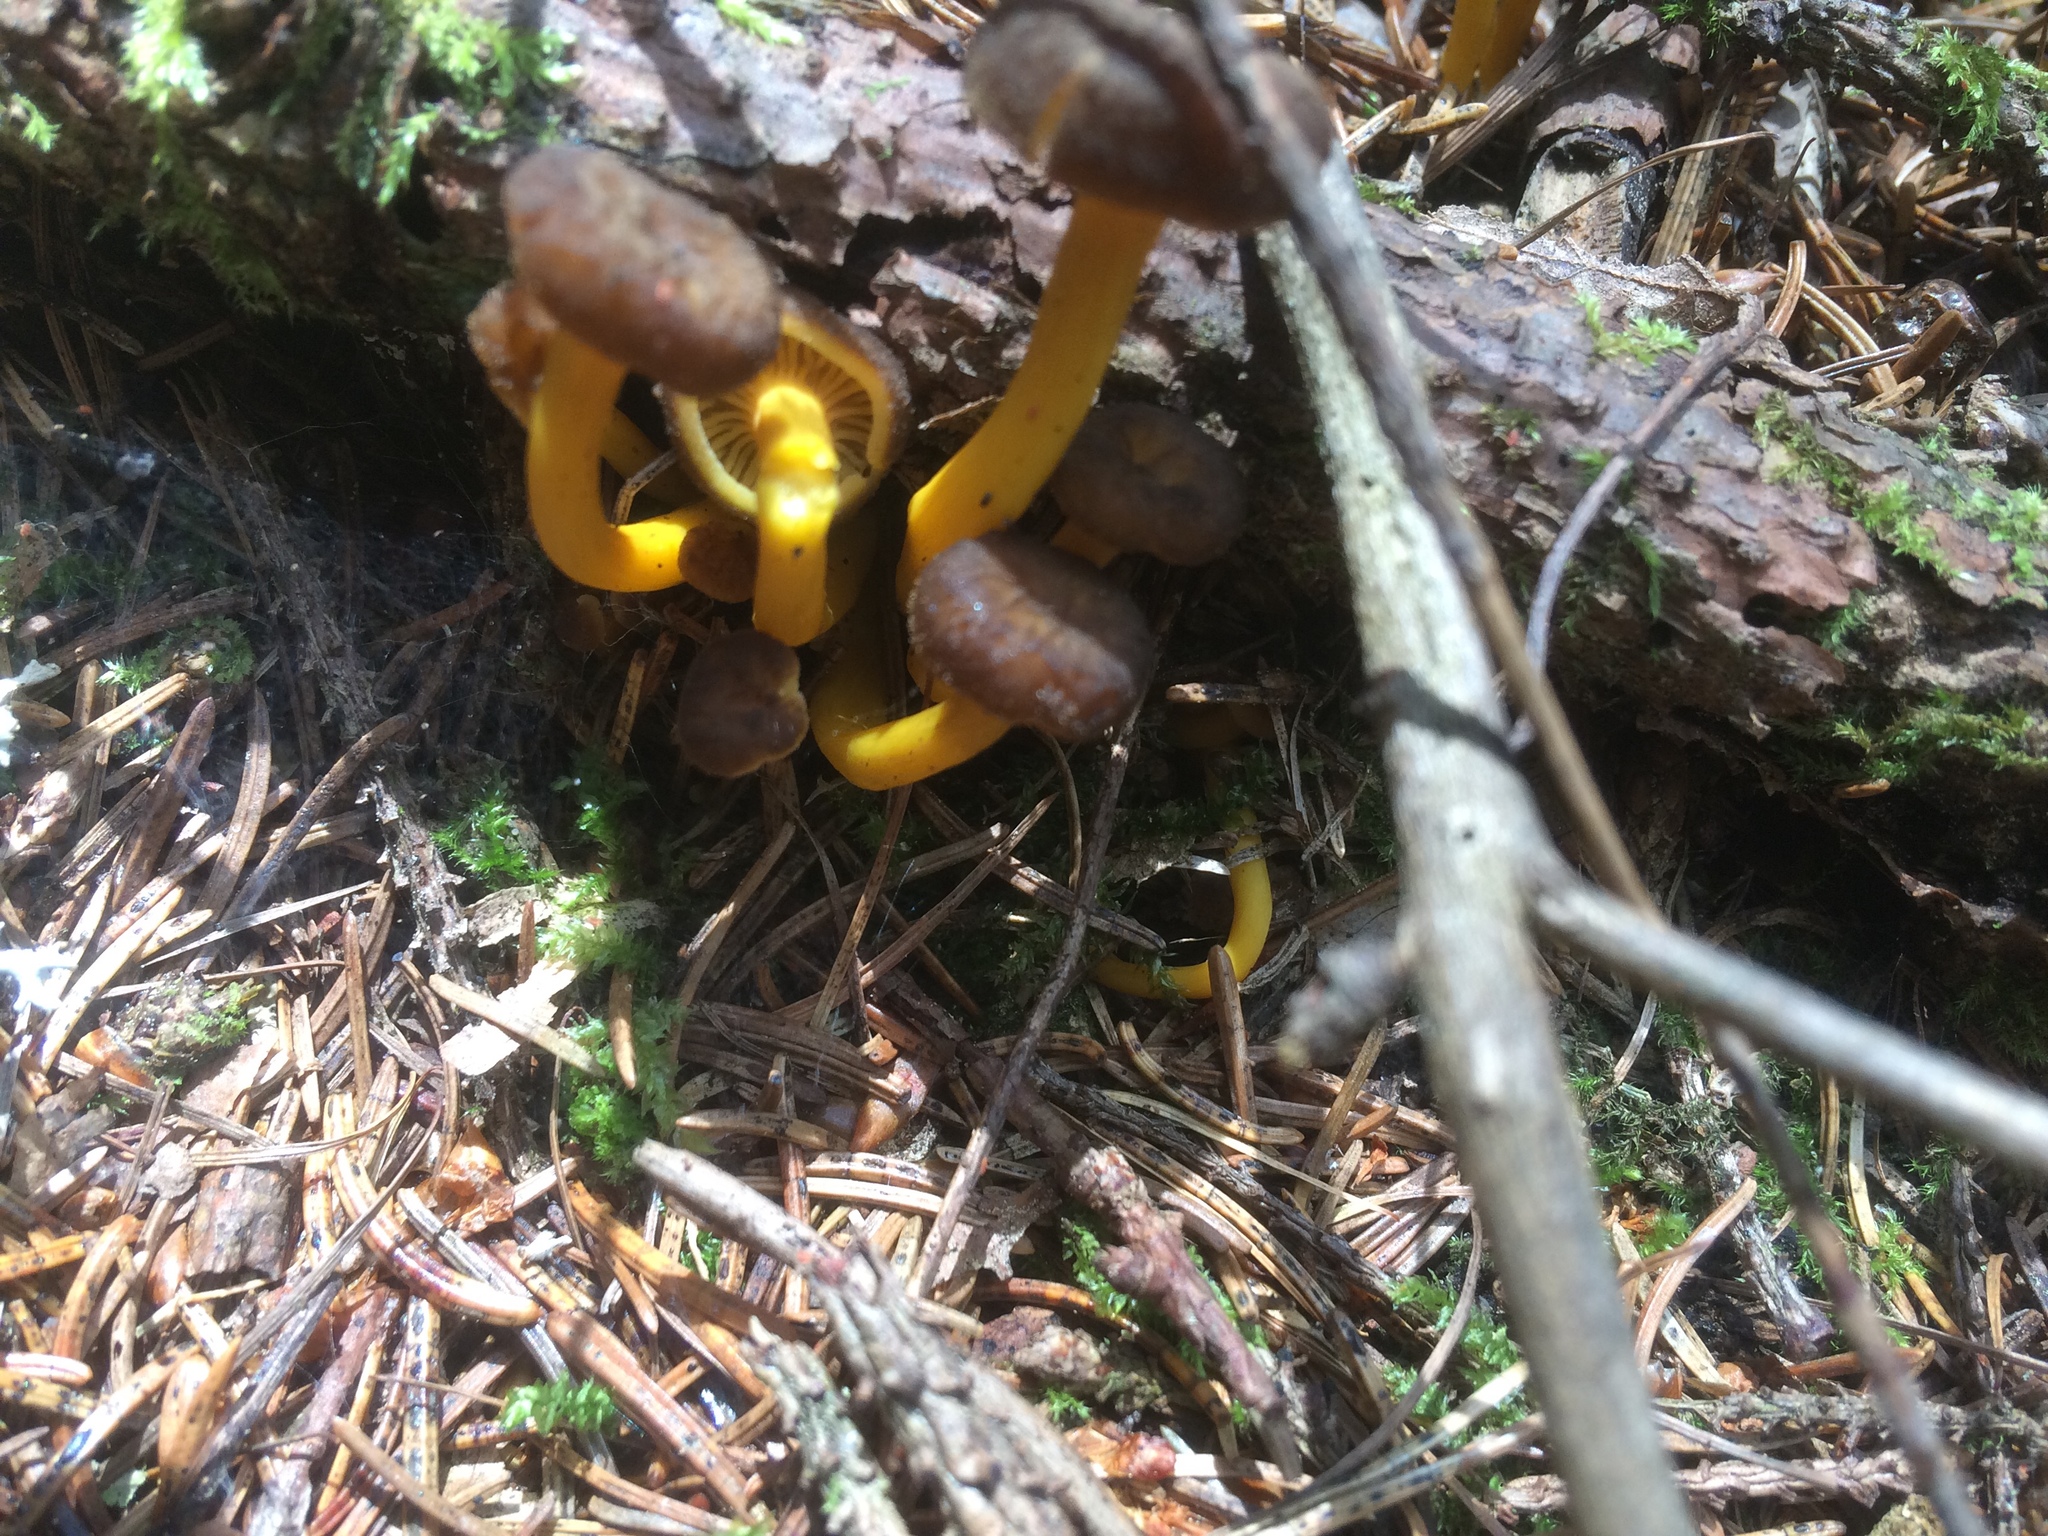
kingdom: Fungi
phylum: Basidiomycota
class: Agaricomycetes
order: Cantharellales
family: Hydnaceae
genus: Craterellus
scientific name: Craterellus tubaeformis
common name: Yellowfoot
